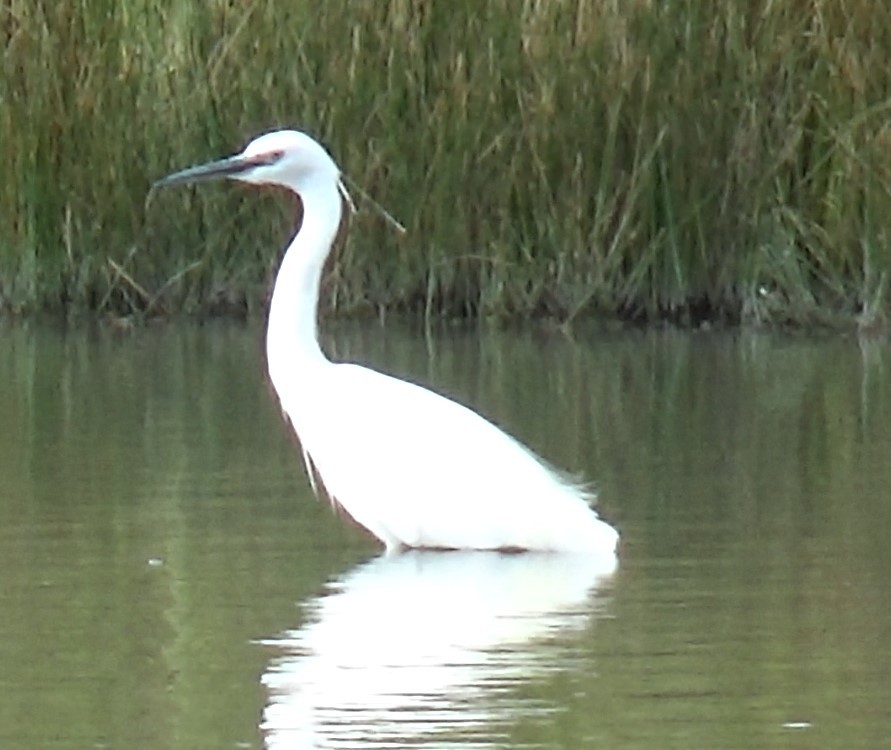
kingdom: Animalia
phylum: Chordata
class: Aves
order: Pelecaniformes
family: Ardeidae
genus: Egretta
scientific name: Egretta garzetta
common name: Little egret
